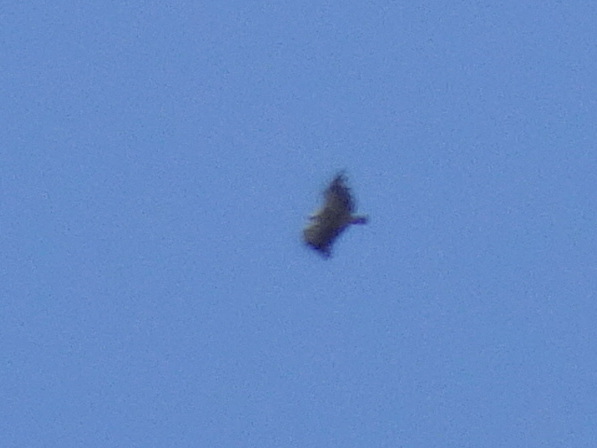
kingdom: Animalia
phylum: Chordata
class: Aves
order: Accipitriformes
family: Accipitridae
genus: Gyps
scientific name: Gyps fulvus
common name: Griffon vulture
